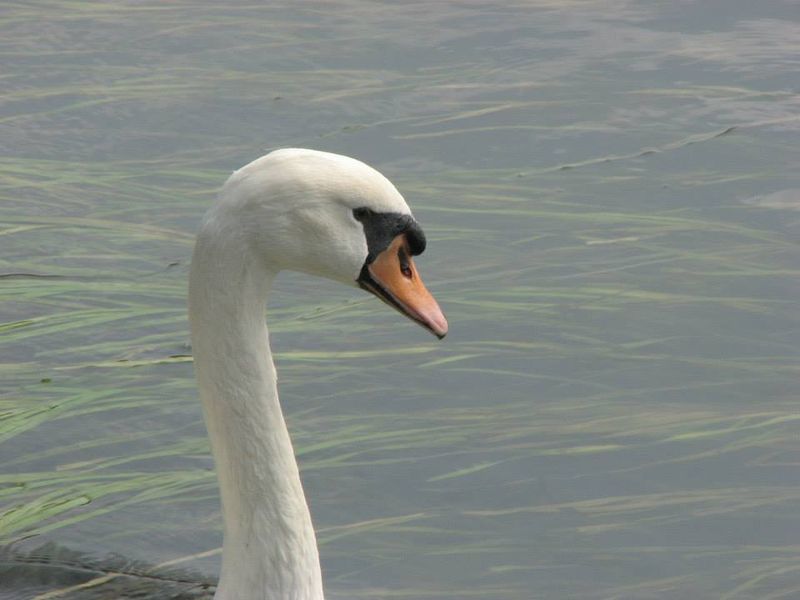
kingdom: Animalia
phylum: Chordata
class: Aves
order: Anseriformes
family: Anatidae
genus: Cygnus
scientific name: Cygnus olor
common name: Mute swan
